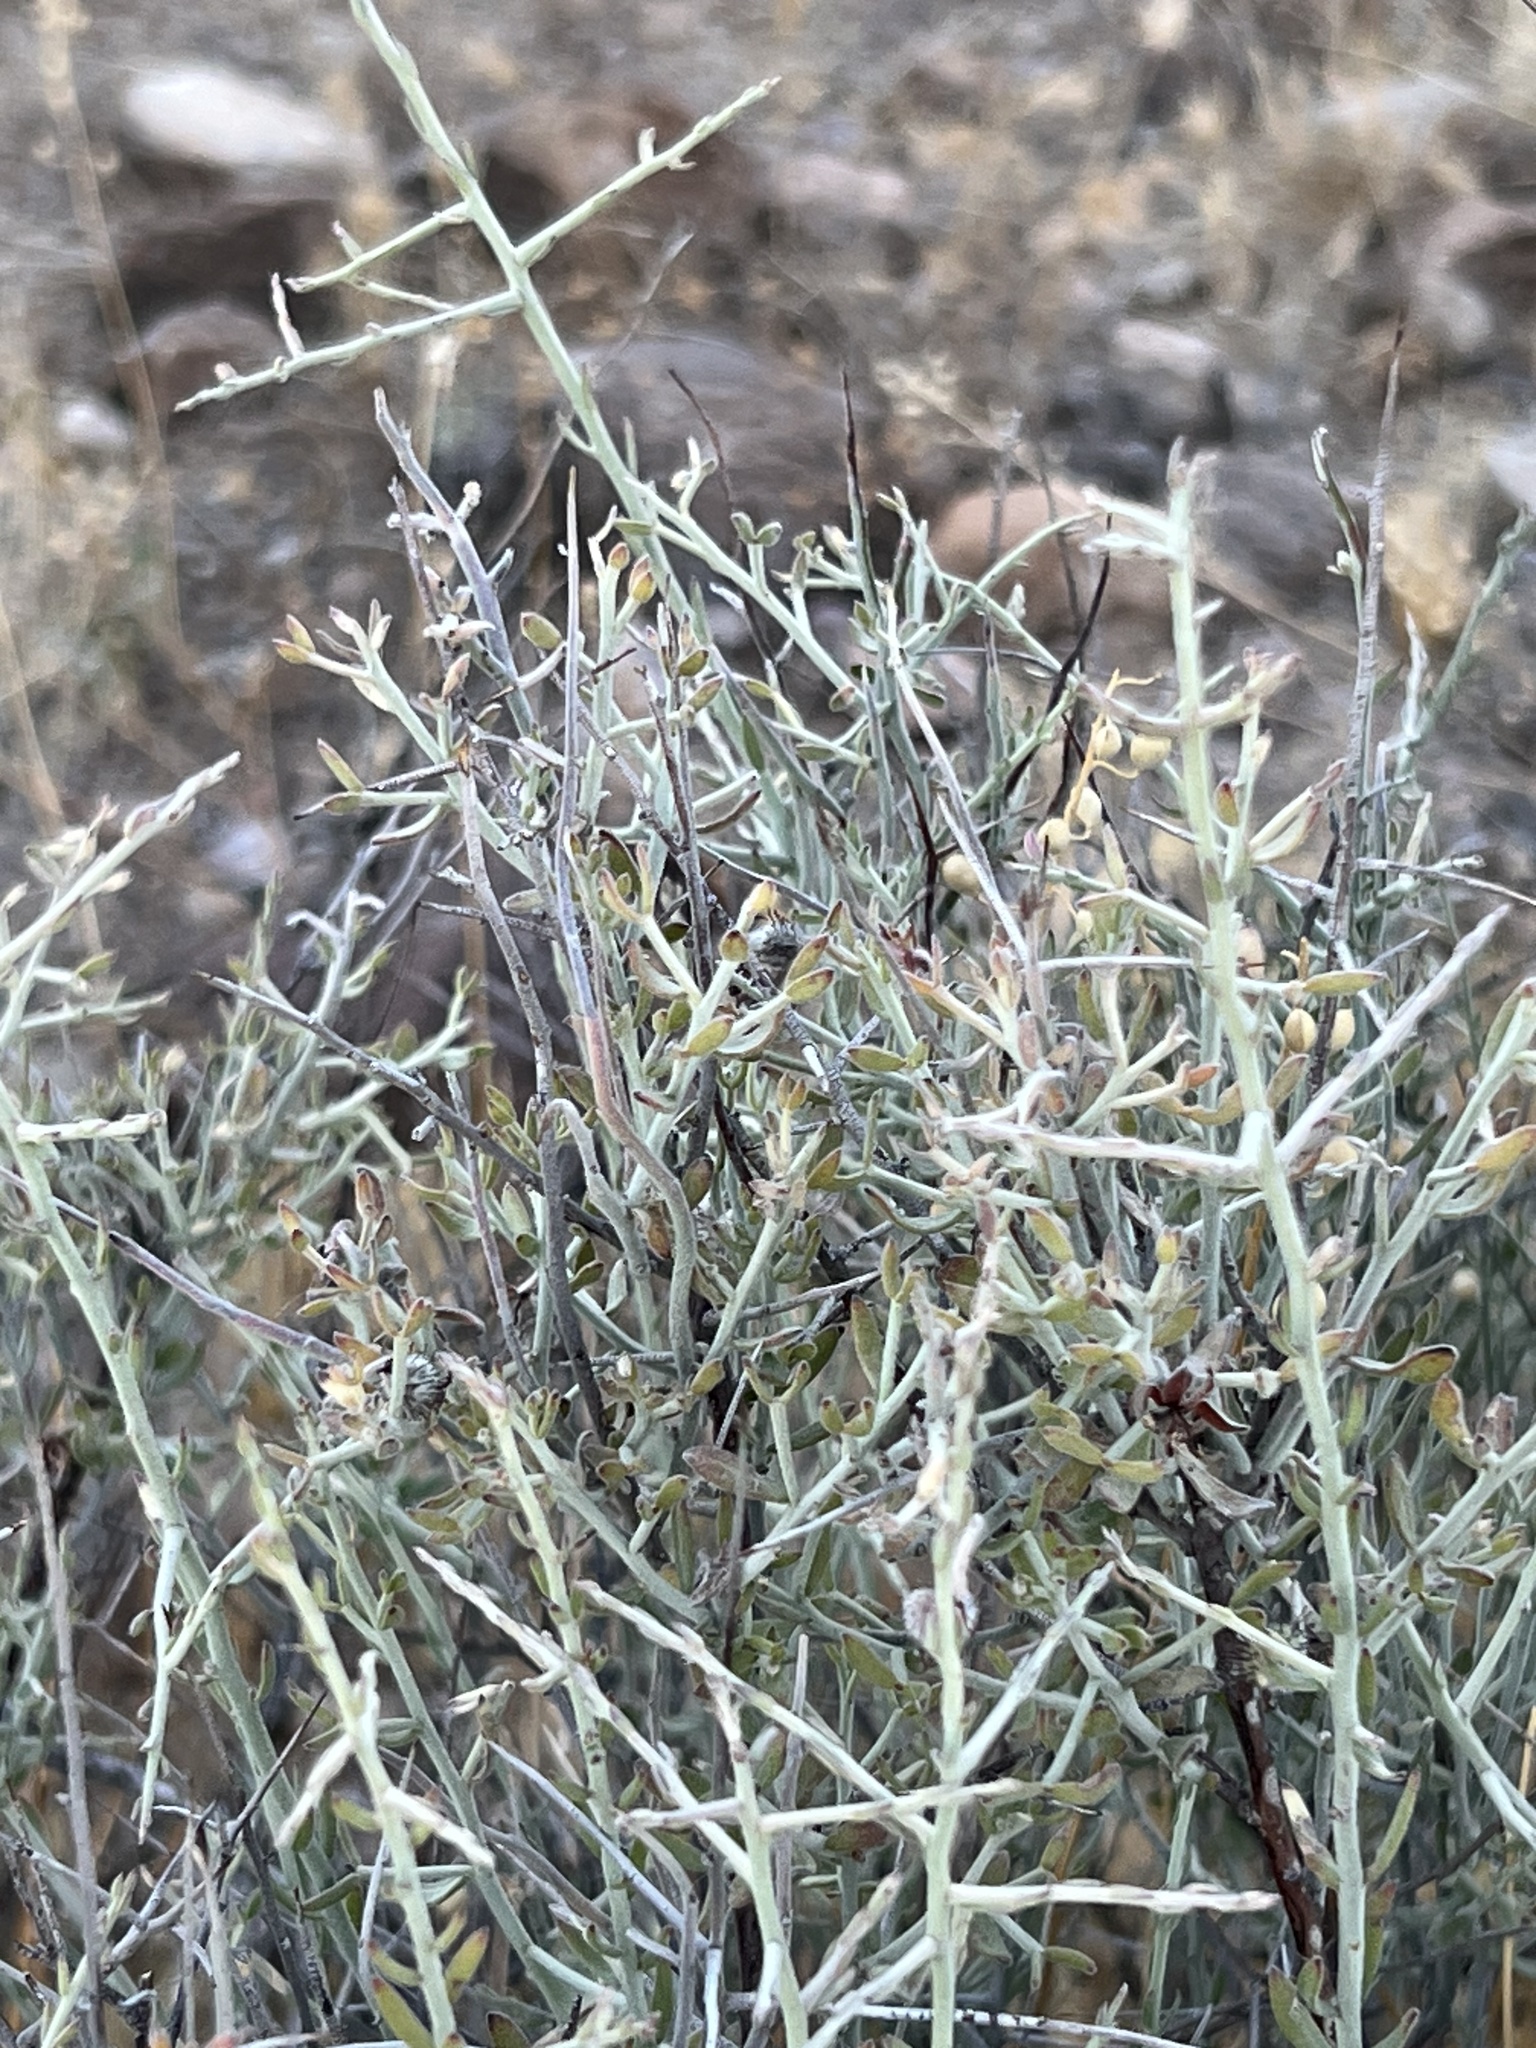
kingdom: Plantae
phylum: Tracheophyta
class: Magnoliopsida
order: Zygophyllales
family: Krameriaceae
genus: Krameria
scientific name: Krameria bicolor
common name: White ratany
